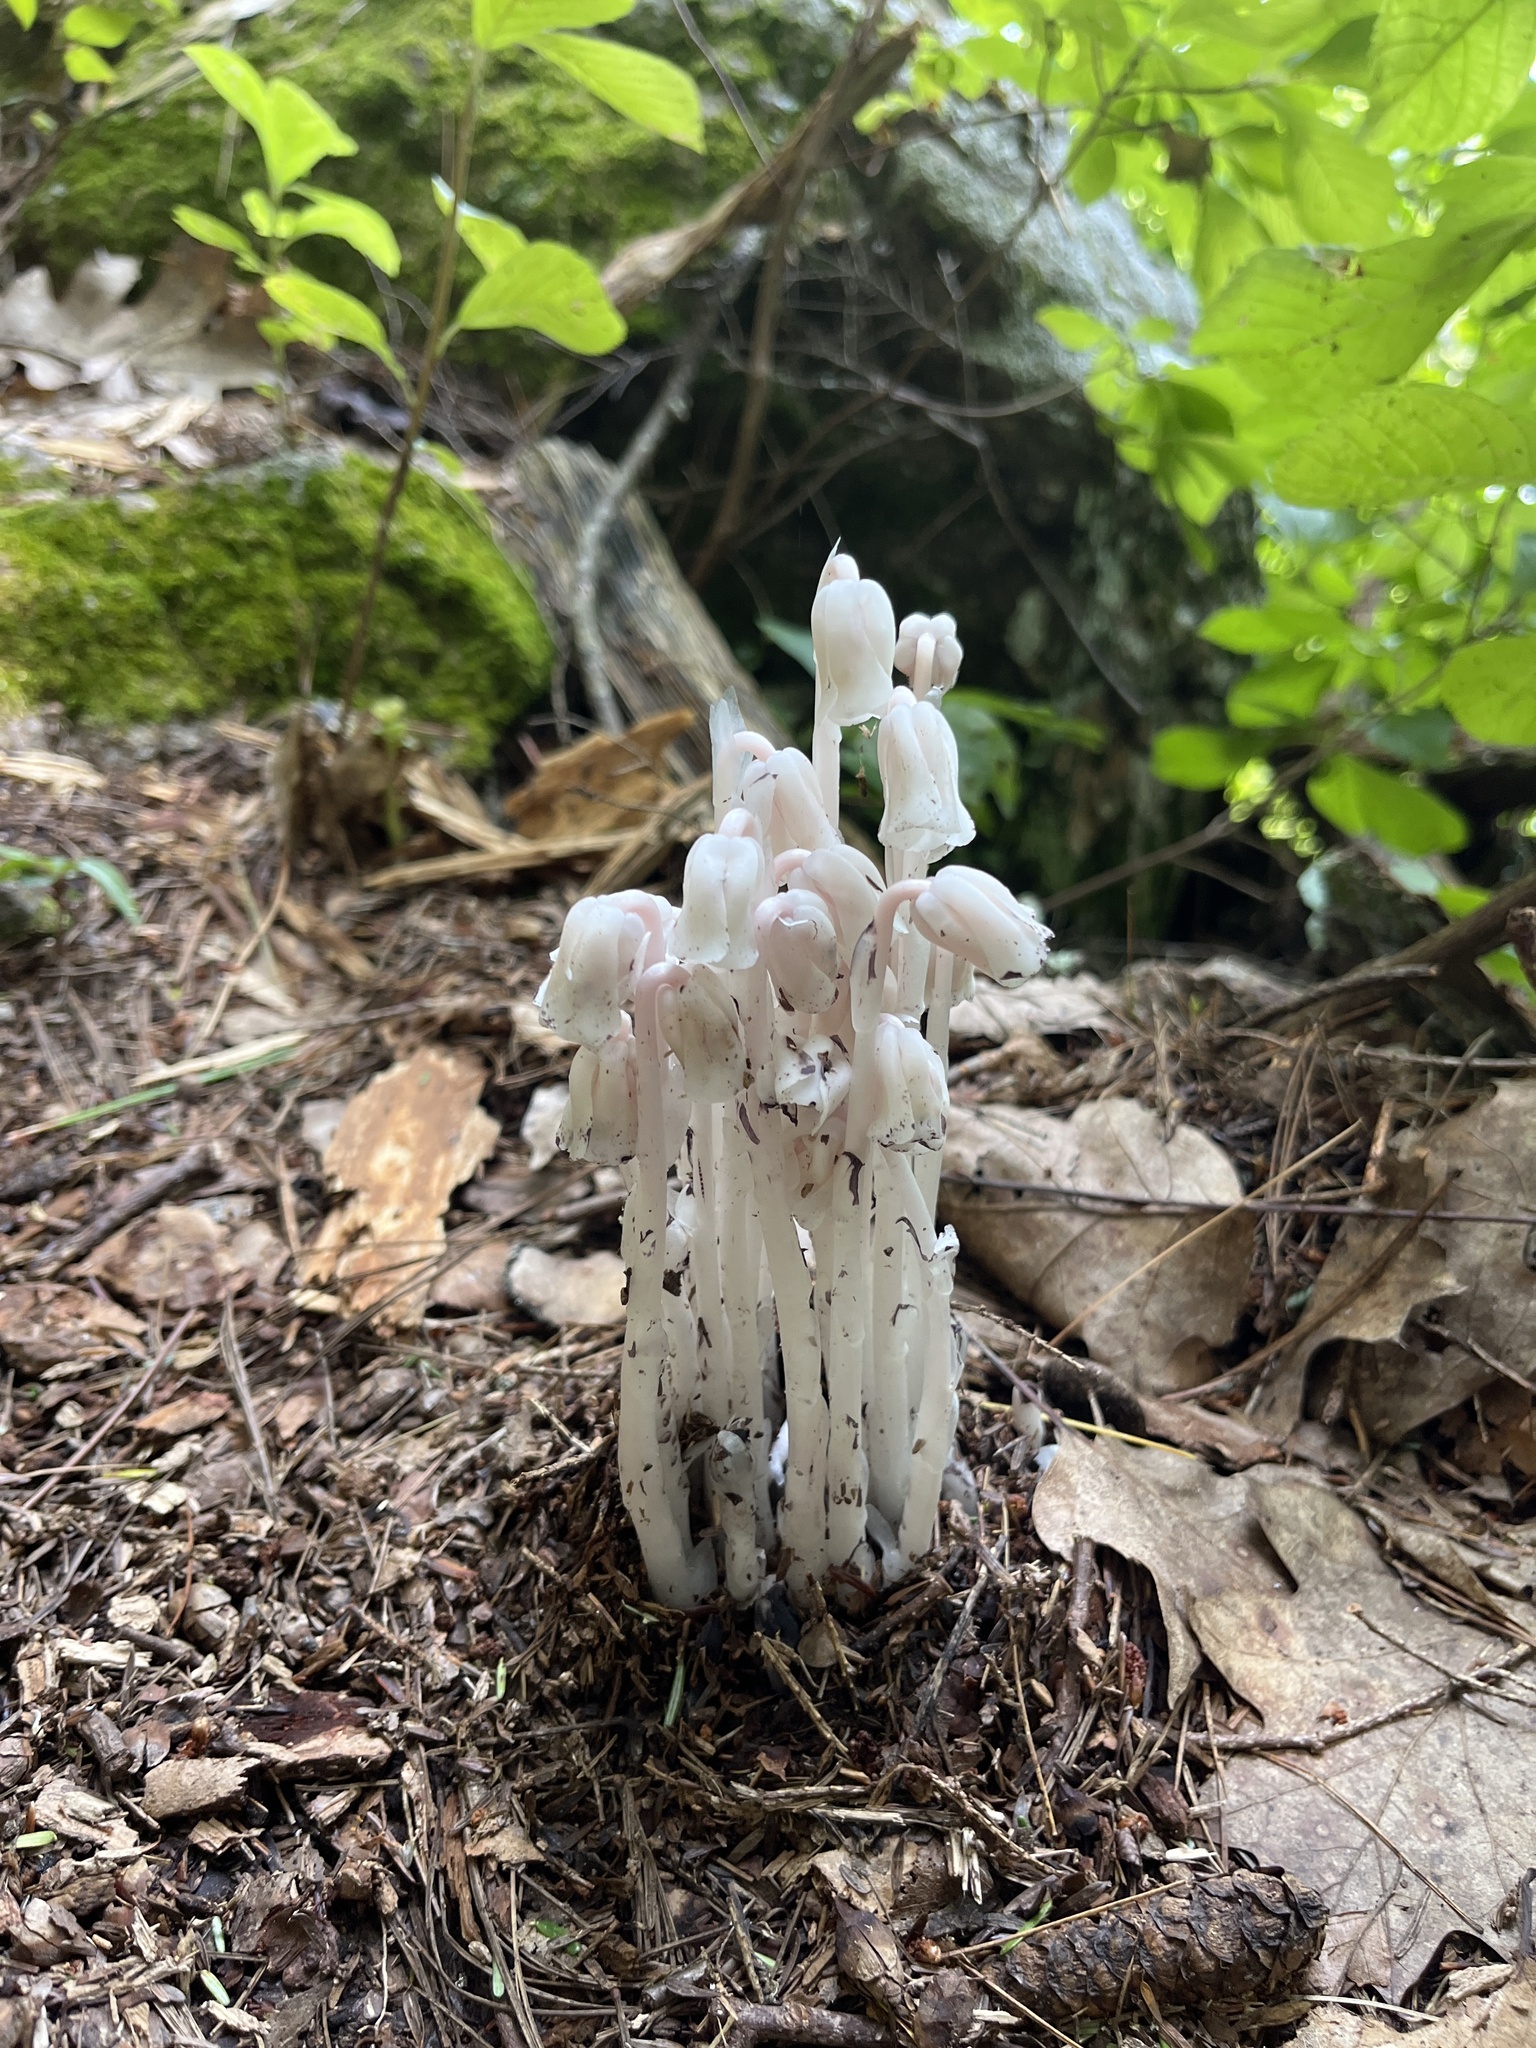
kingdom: Plantae
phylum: Tracheophyta
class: Magnoliopsida
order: Ericales
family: Ericaceae
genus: Monotropa
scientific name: Monotropa uniflora
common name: Convulsion root
